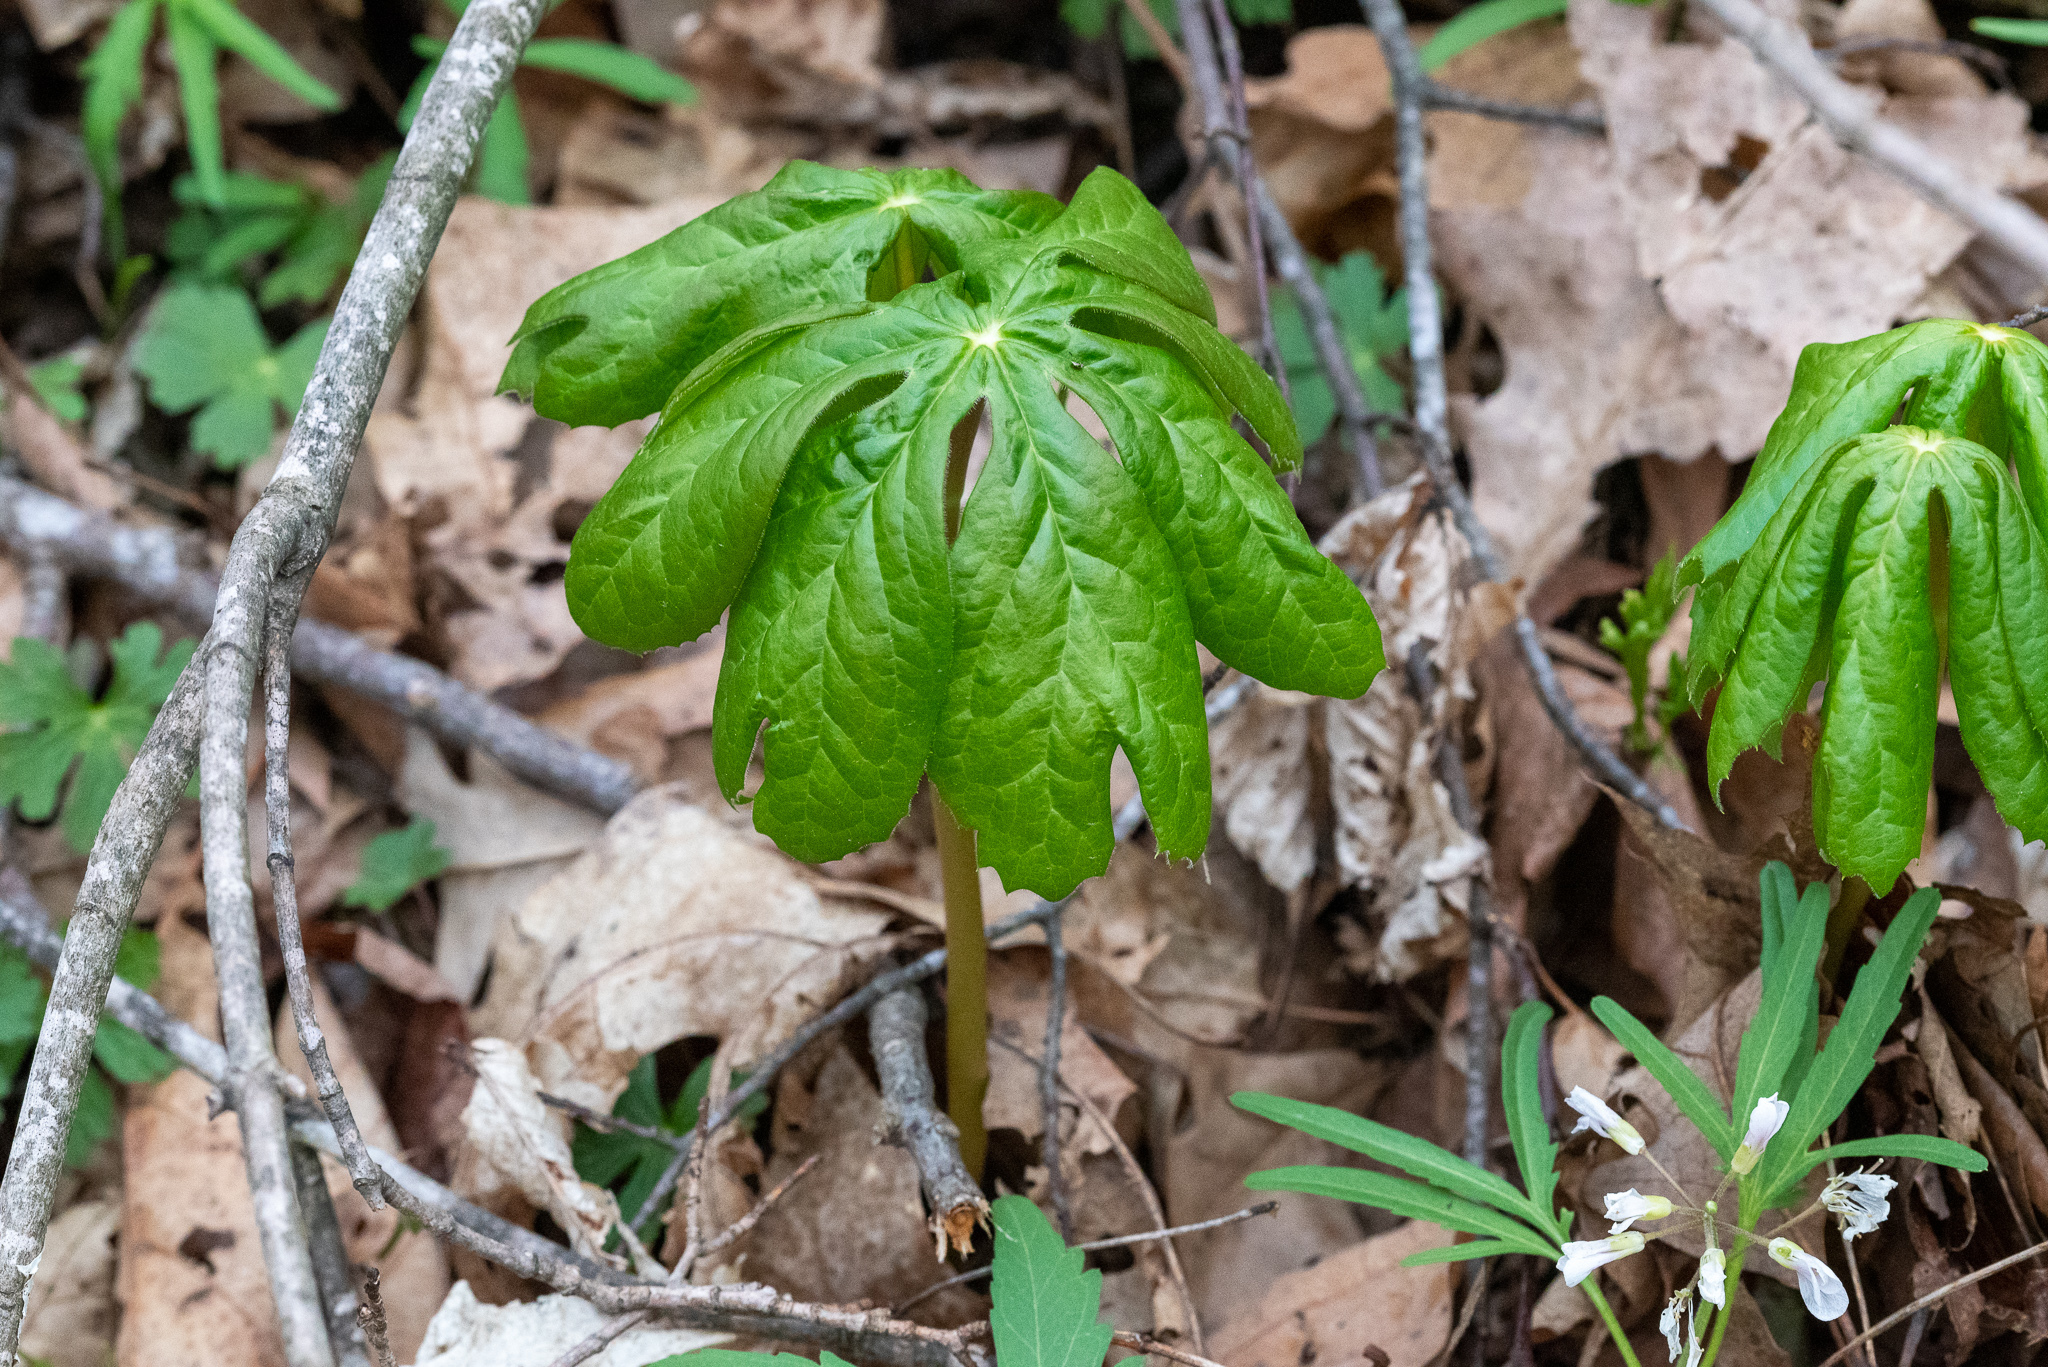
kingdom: Plantae
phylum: Tracheophyta
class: Magnoliopsida
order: Ranunculales
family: Berberidaceae
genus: Podophyllum
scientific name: Podophyllum peltatum
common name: Wild mandrake
